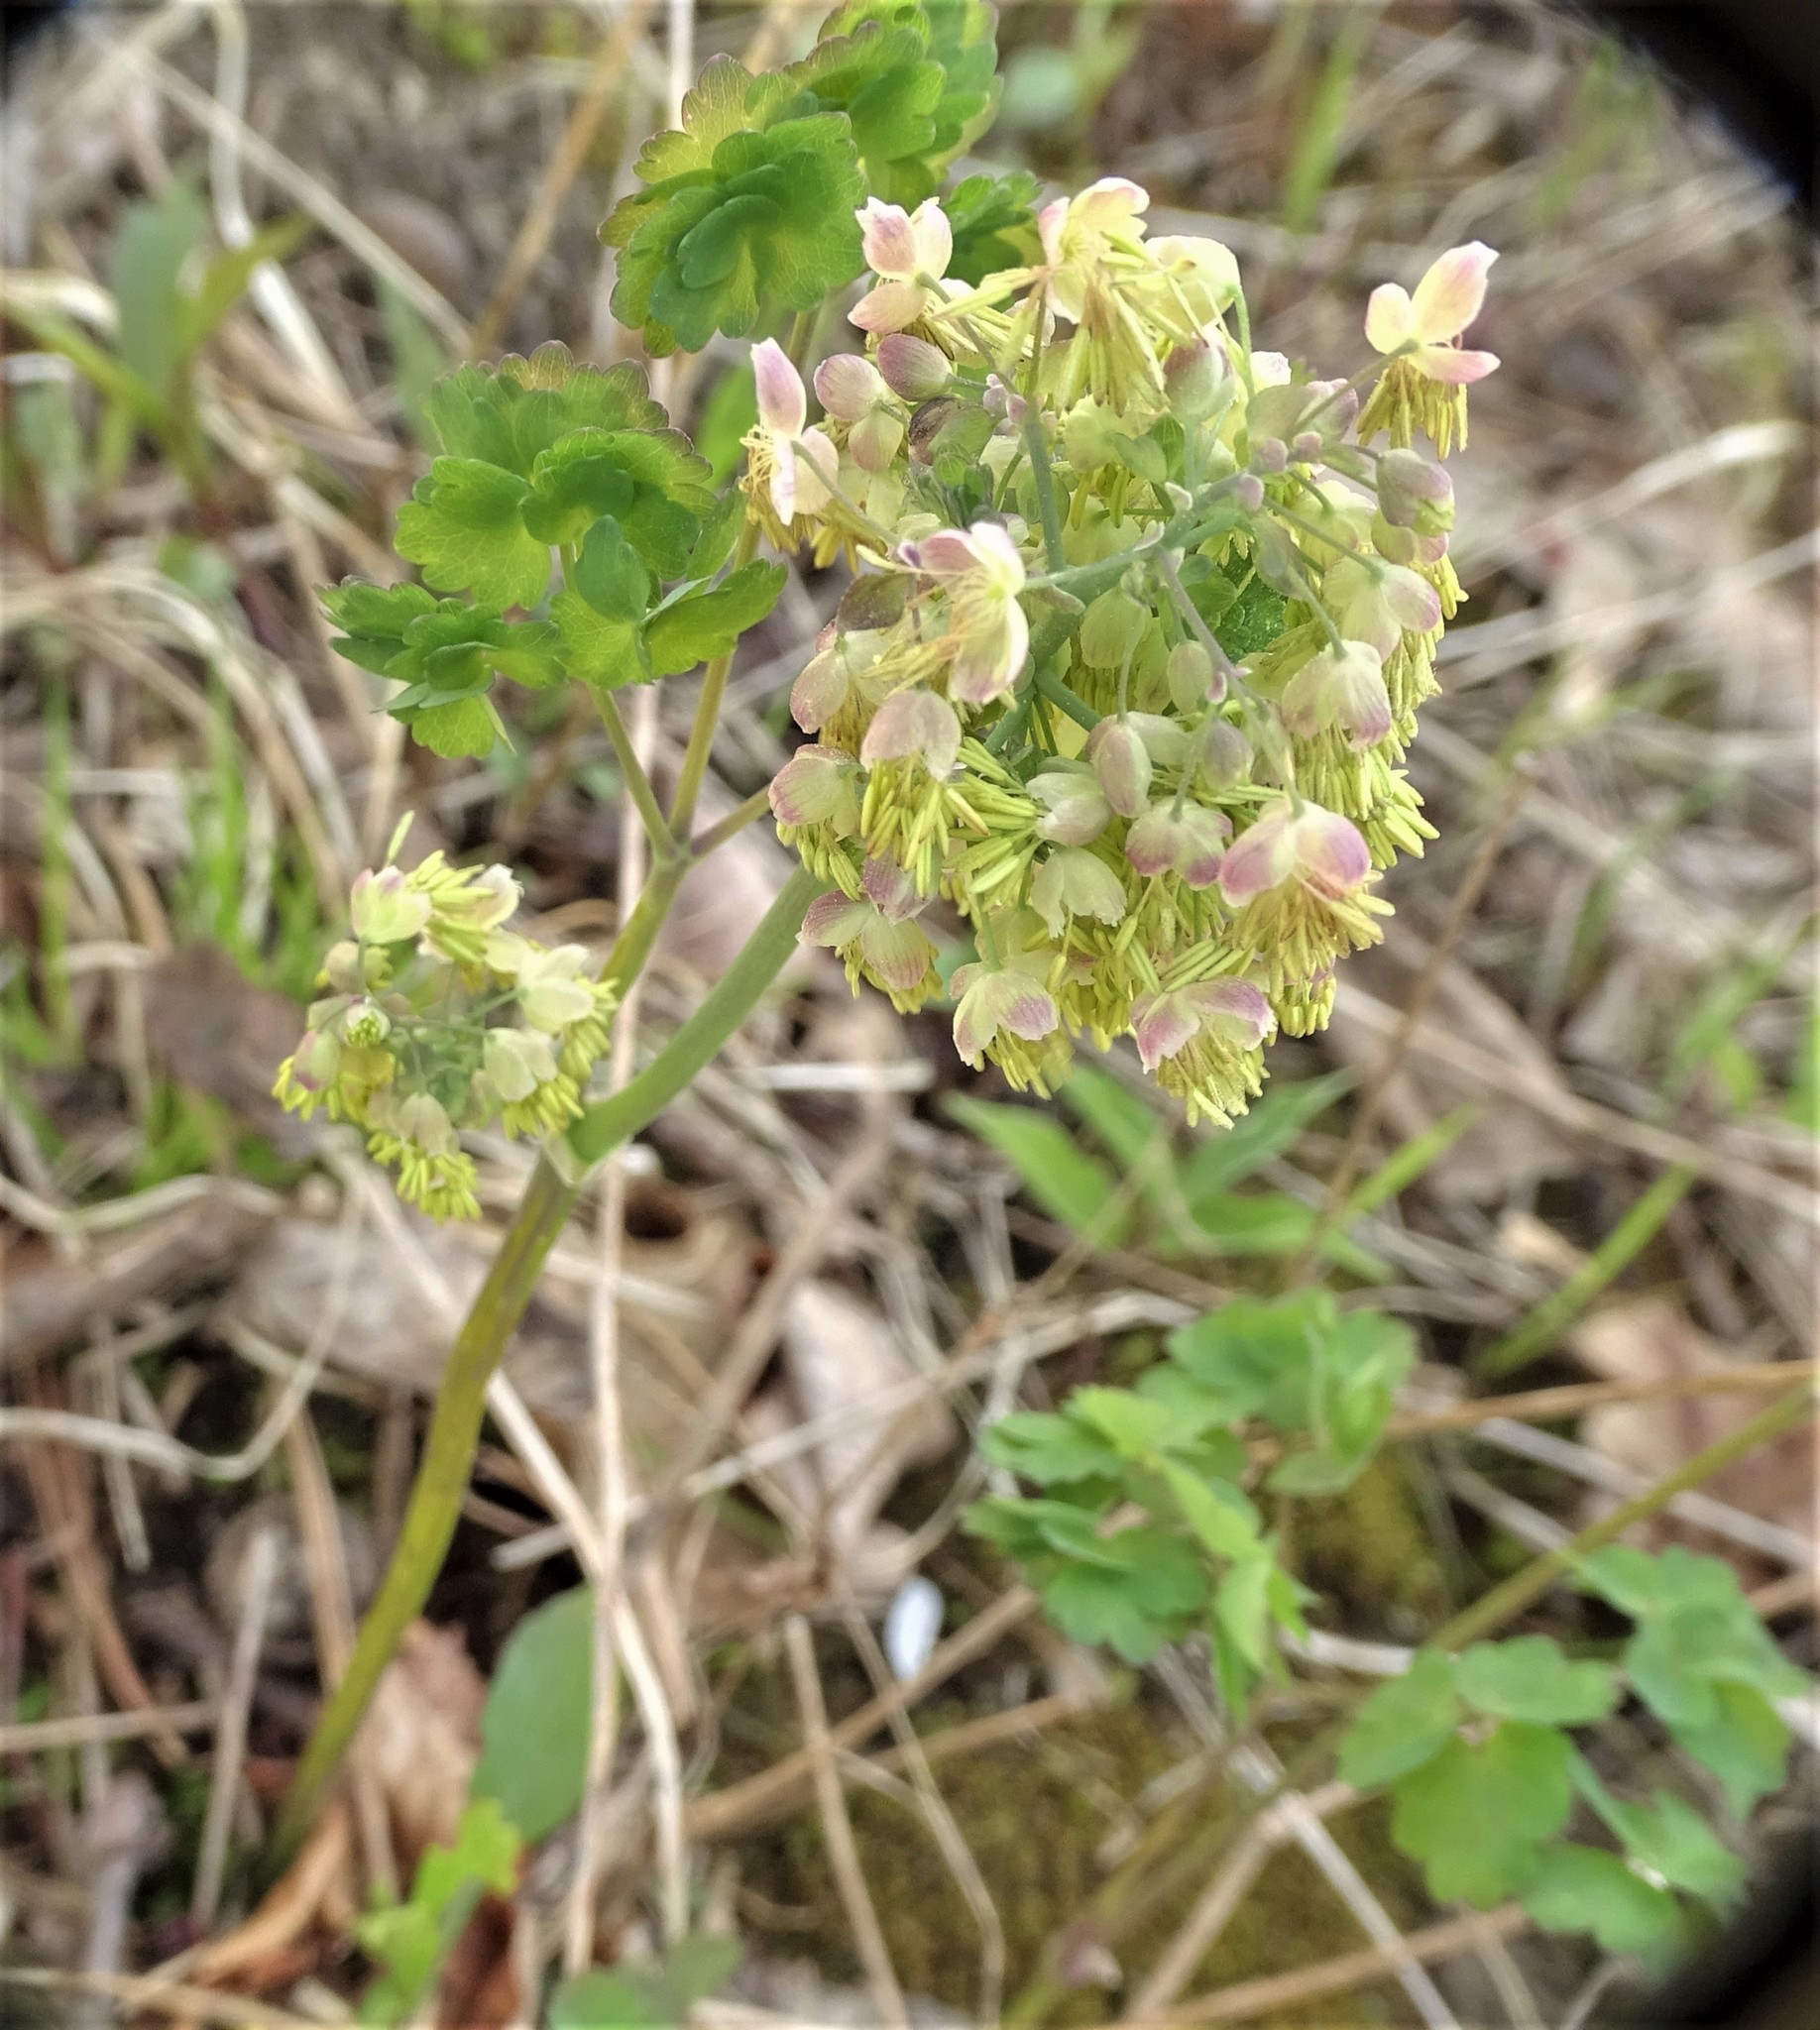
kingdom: Plantae
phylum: Tracheophyta
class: Magnoliopsida
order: Ranunculales
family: Ranunculaceae
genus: Thalictrum
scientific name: Thalictrum dioicum
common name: Early meadow-rue
